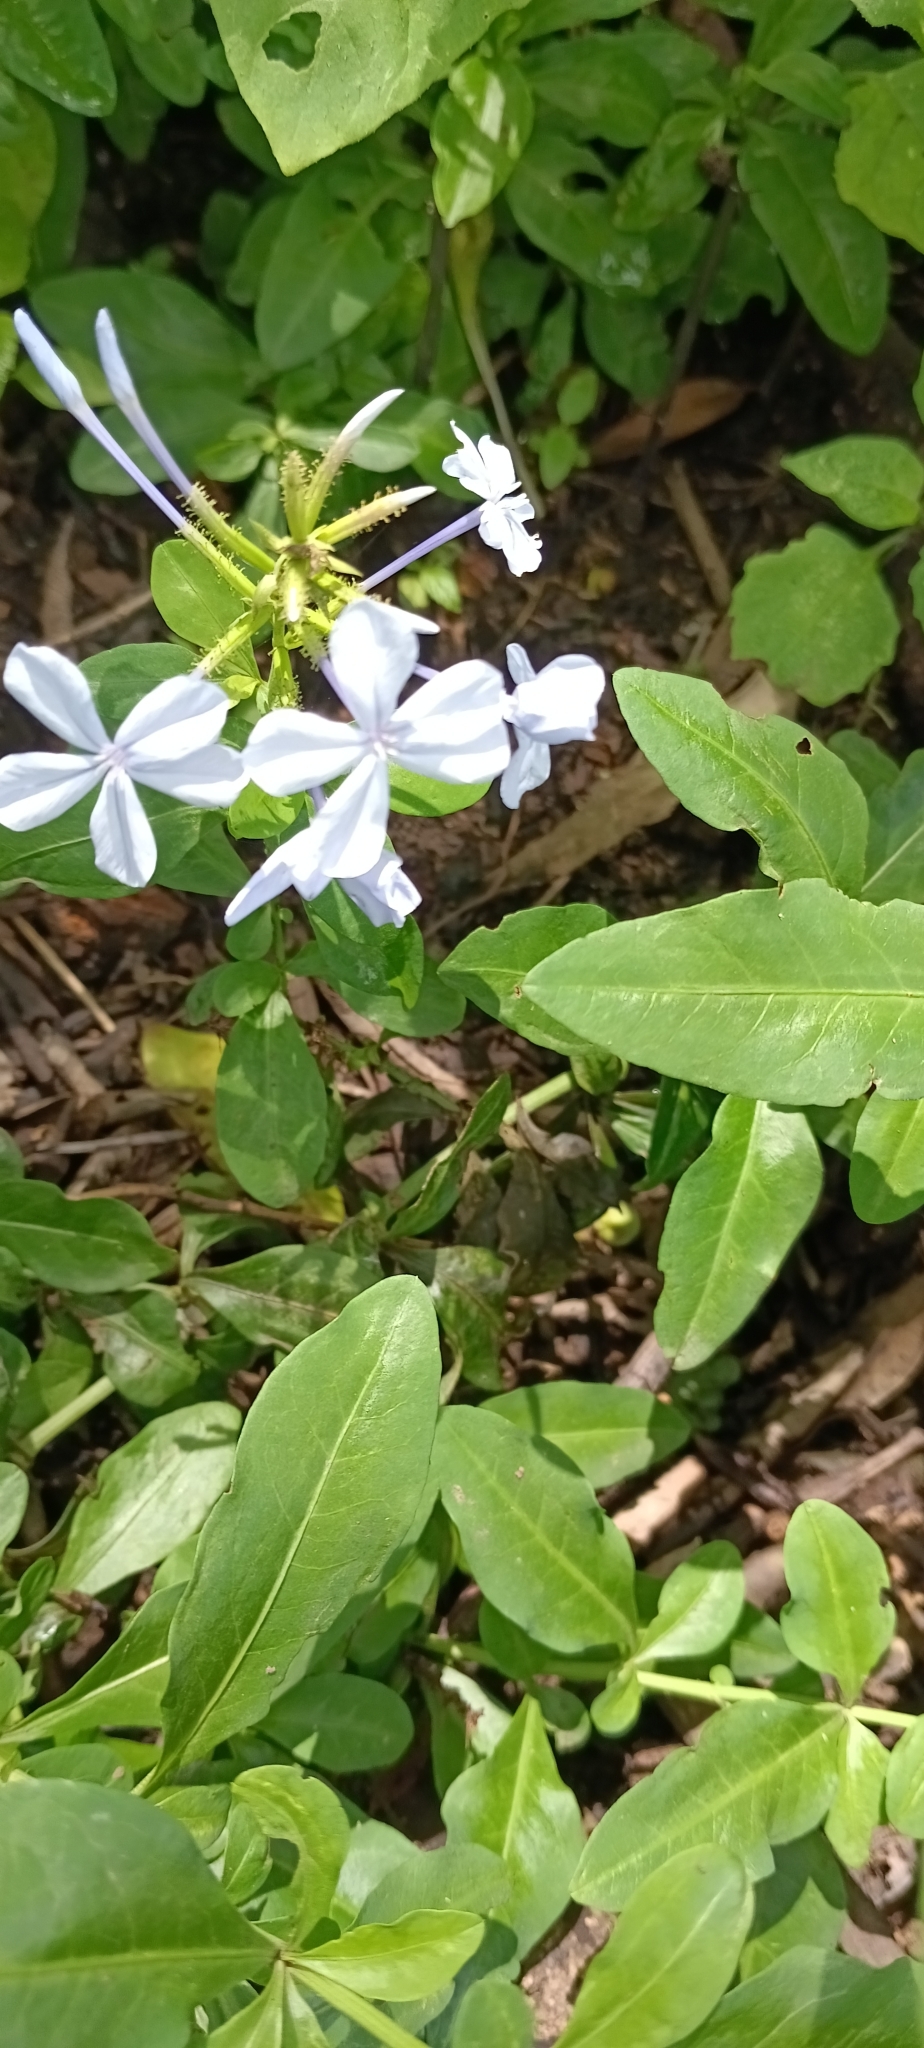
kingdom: Plantae
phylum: Tracheophyta
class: Magnoliopsida
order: Caryophyllales
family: Plumbaginaceae
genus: Plumbago
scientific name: Plumbago auriculata
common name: Cape leadwort
